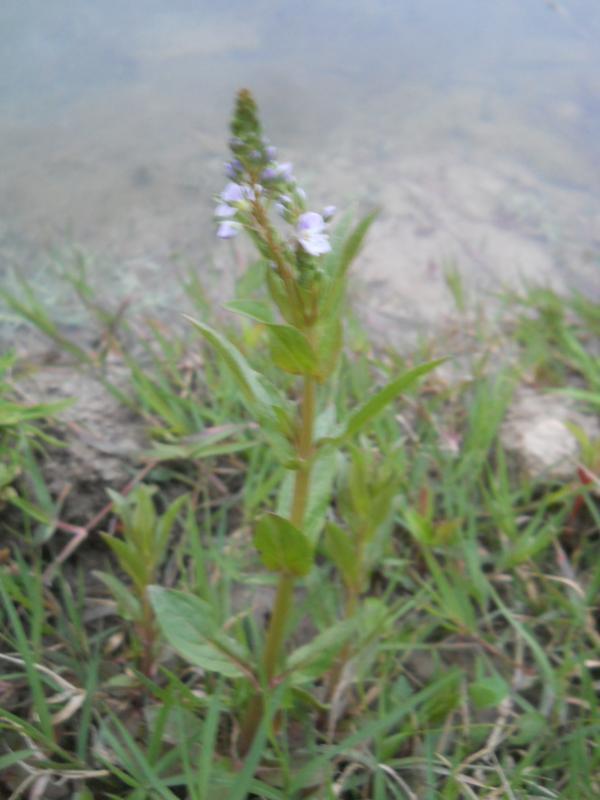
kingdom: Plantae
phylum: Tracheophyta
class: Magnoliopsida
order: Lamiales
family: Plantaginaceae
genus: Veronica
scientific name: Veronica anagallis-aquatica
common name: Water speedwell
